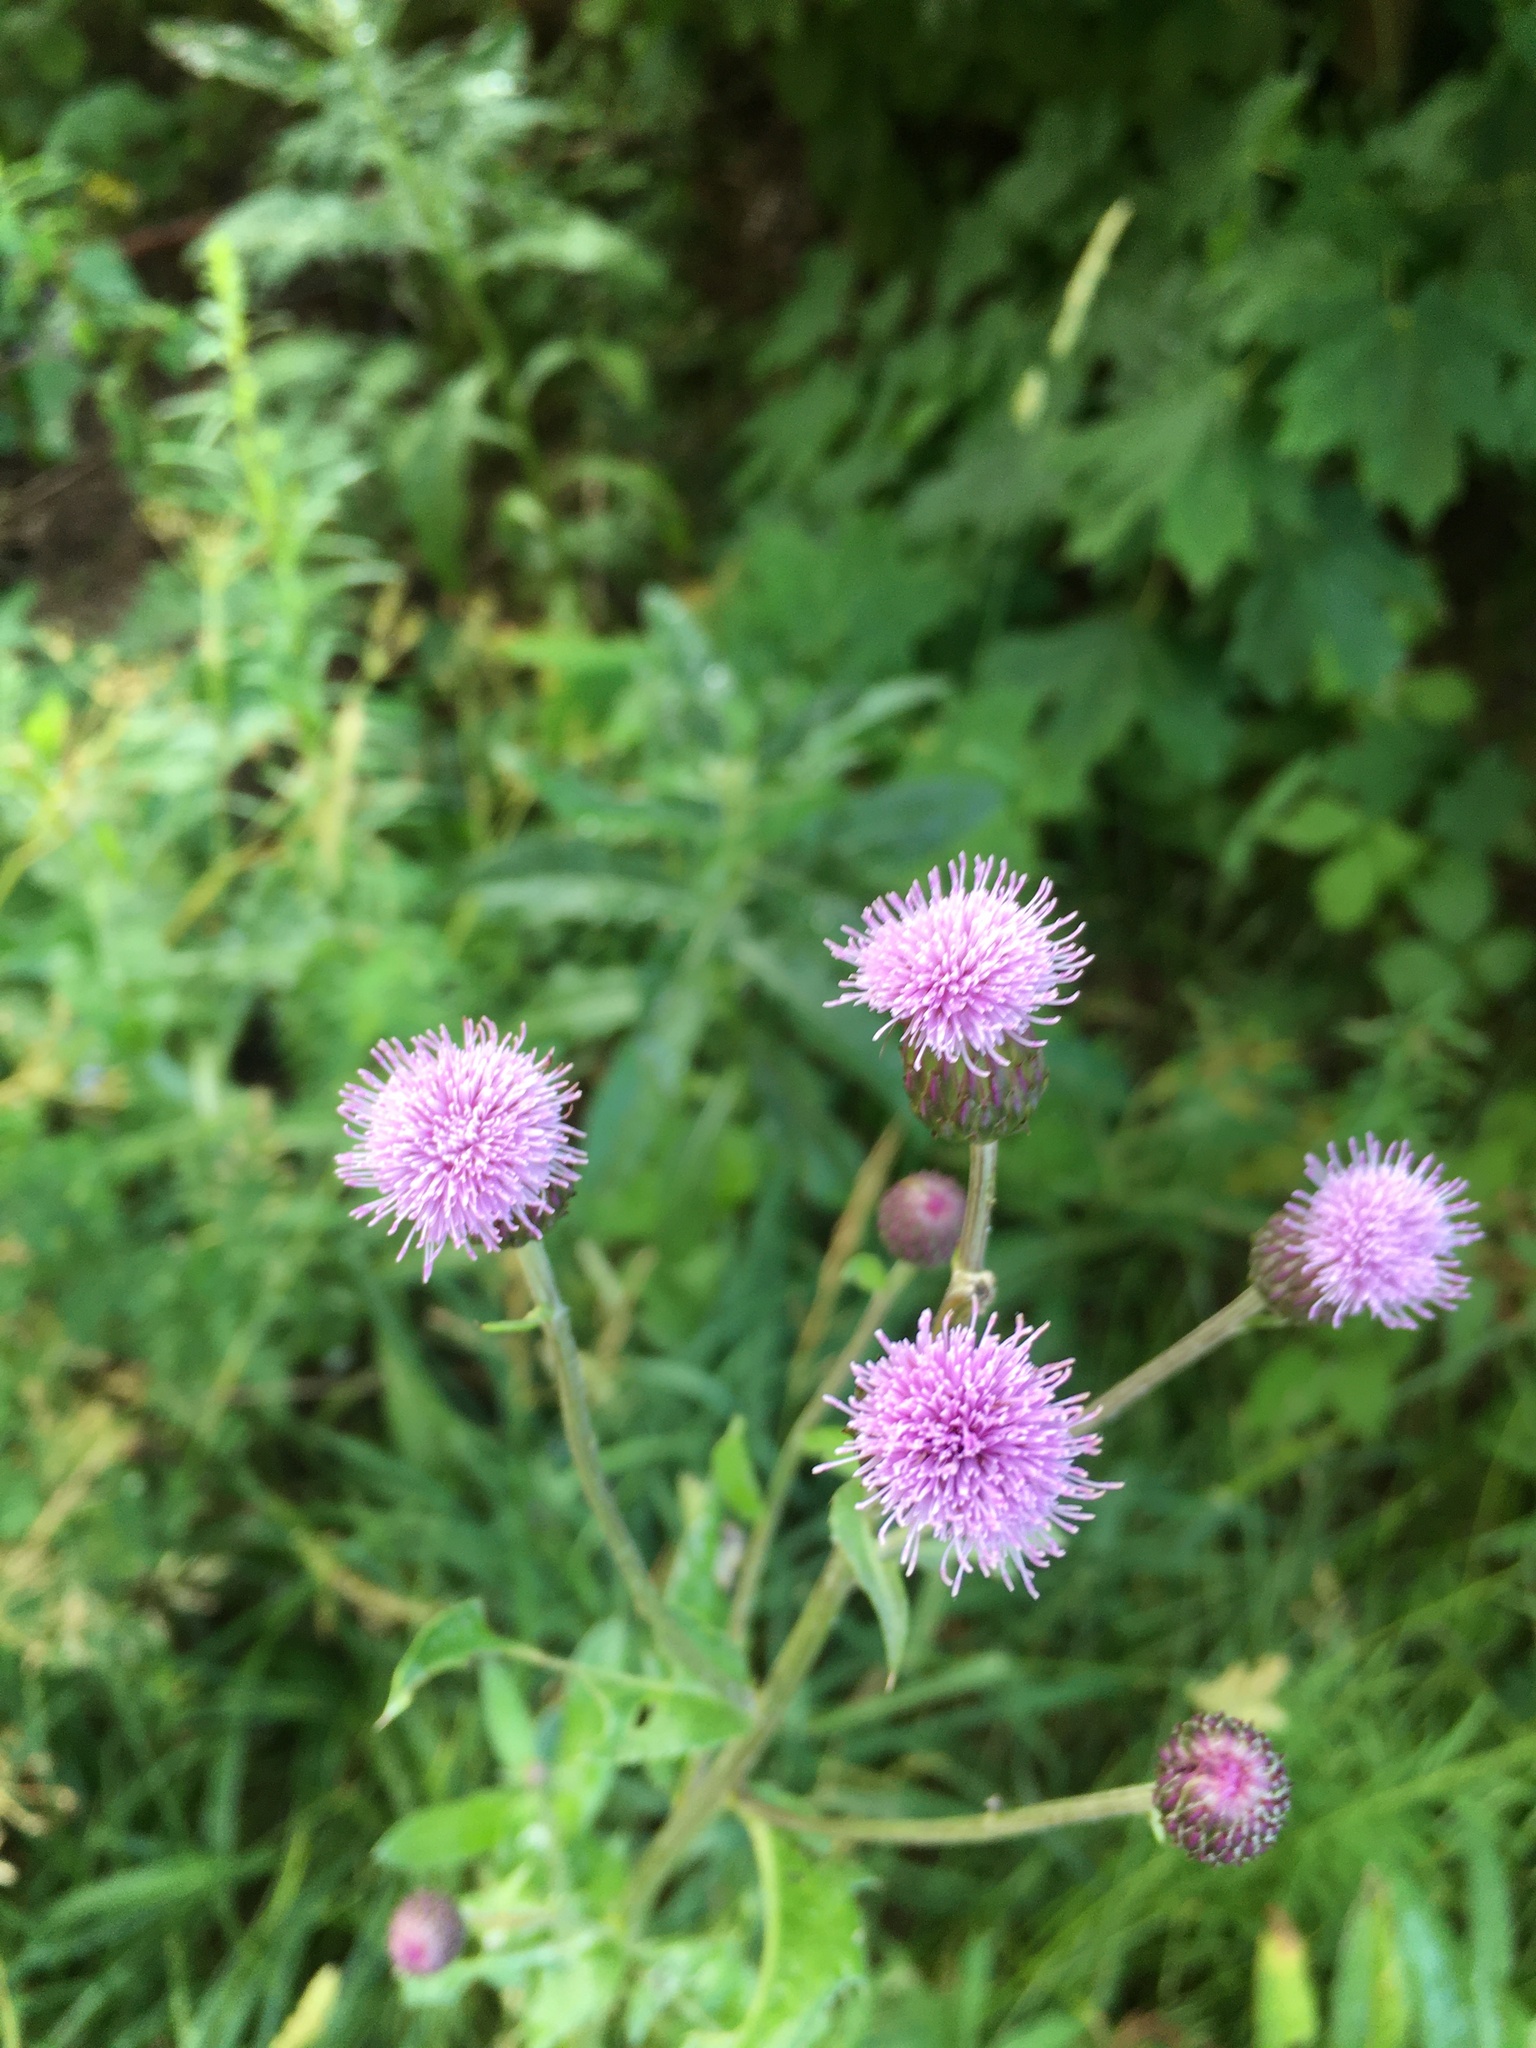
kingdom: Plantae
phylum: Tracheophyta
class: Magnoliopsida
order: Asterales
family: Asteraceae
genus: Cirsium
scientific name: Cirsium arvense
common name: Creeping thistle
